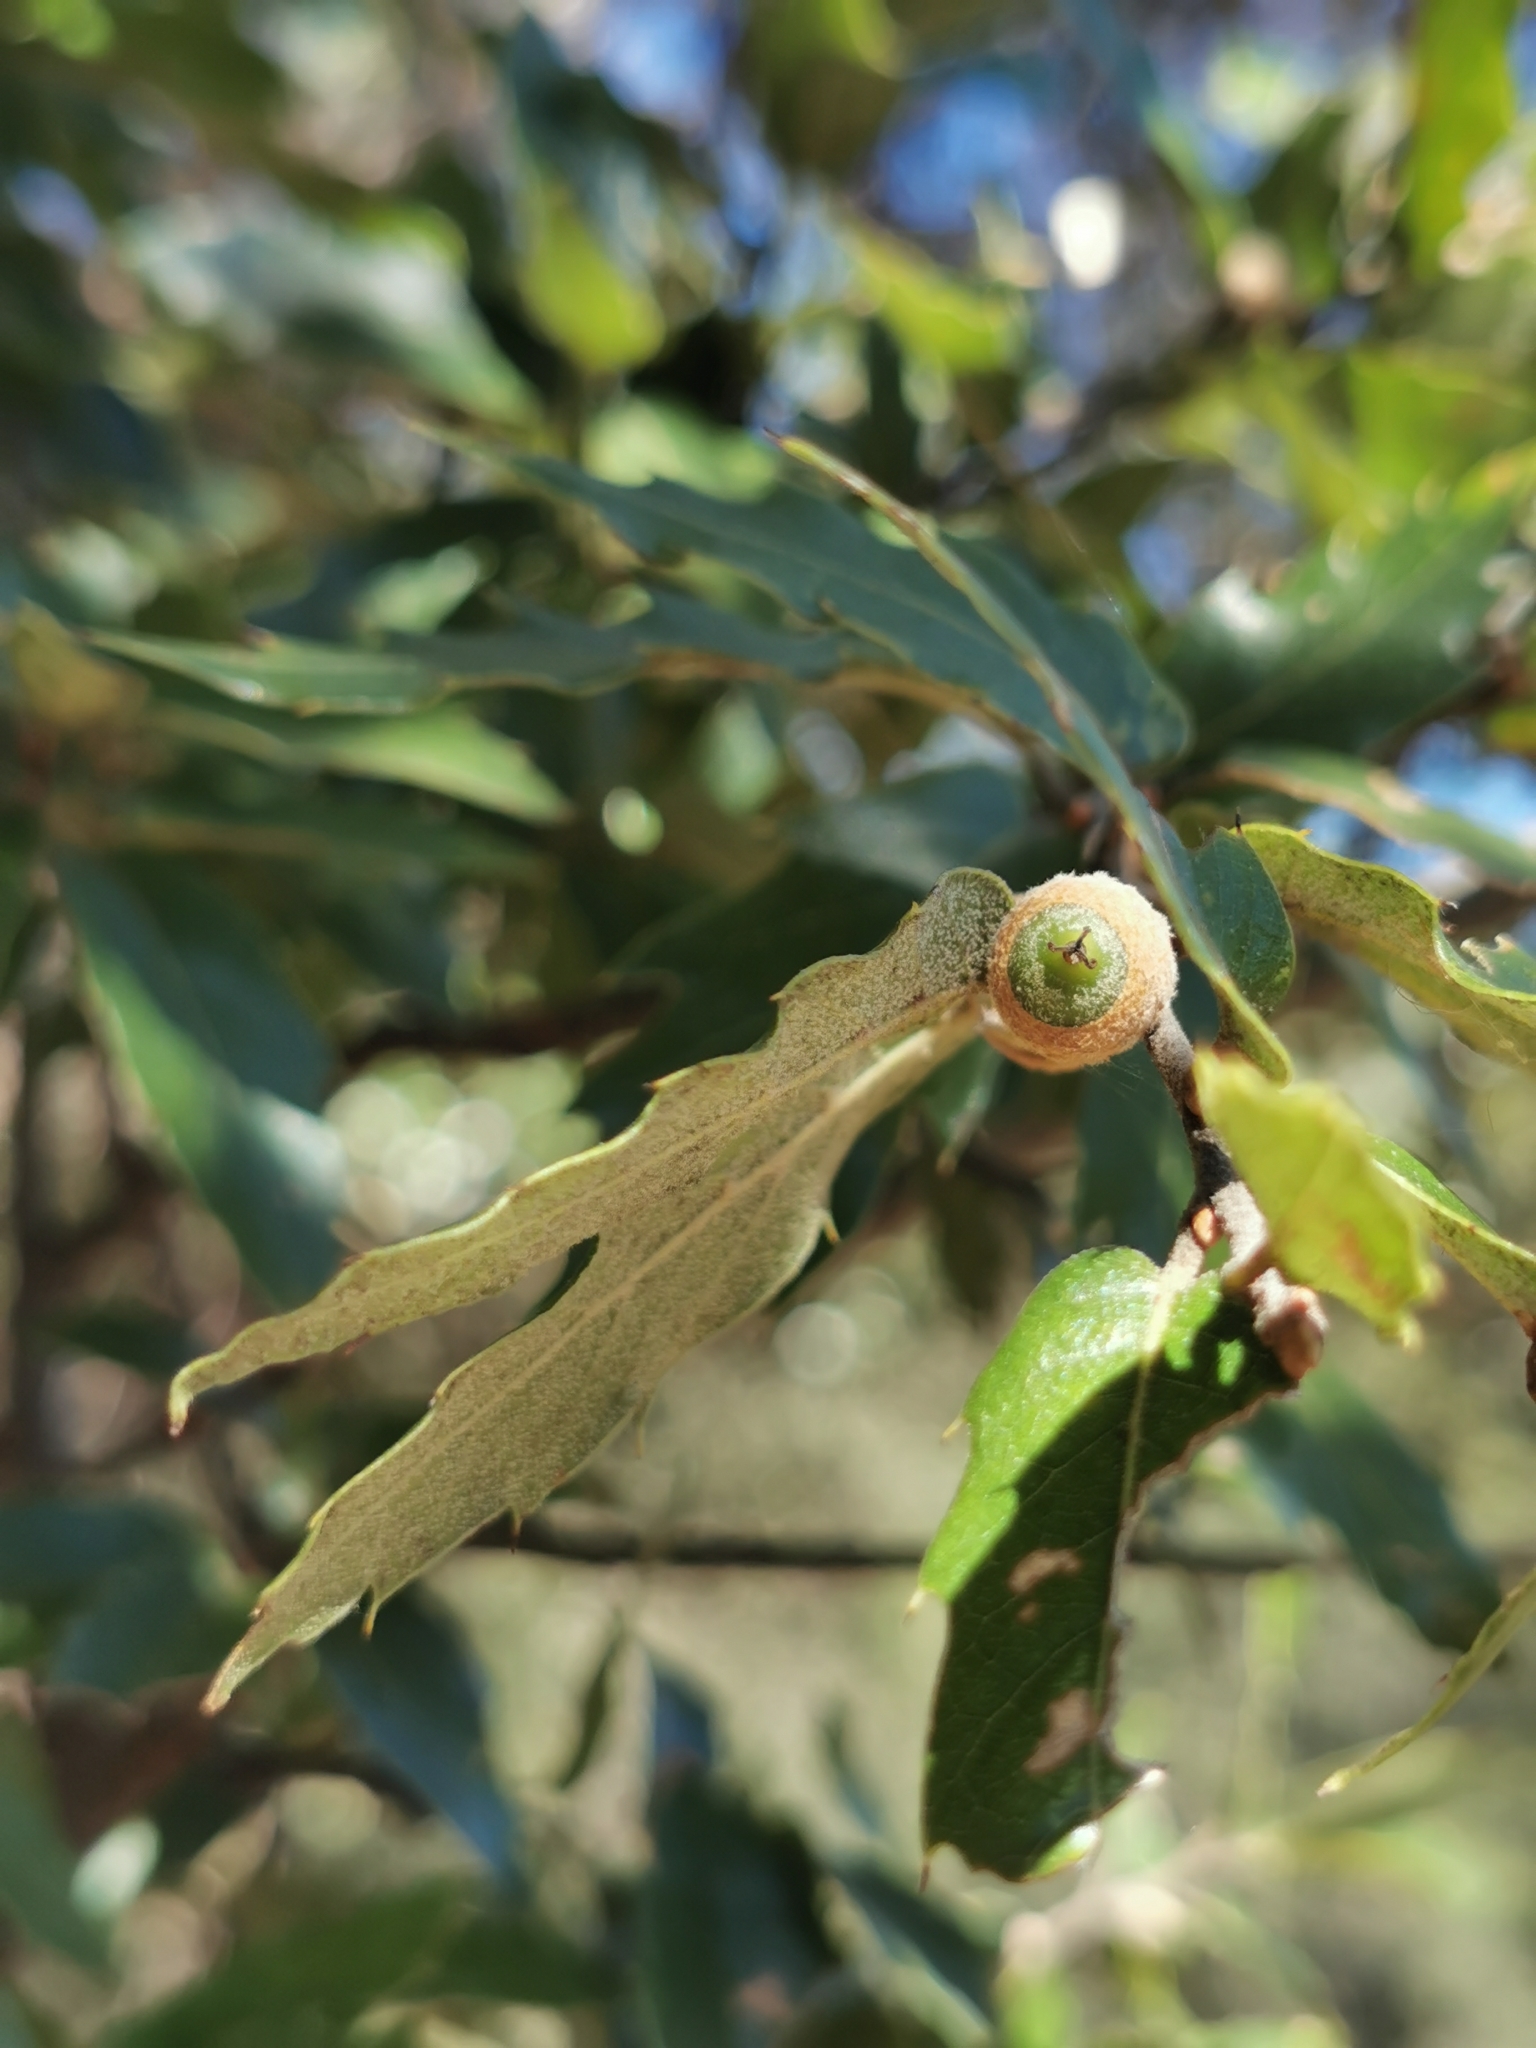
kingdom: Plantae
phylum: Tracheophyta
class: Magnoliopsida
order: Fagales
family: Fagaceae
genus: Quercus
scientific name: Quercus eduardi
